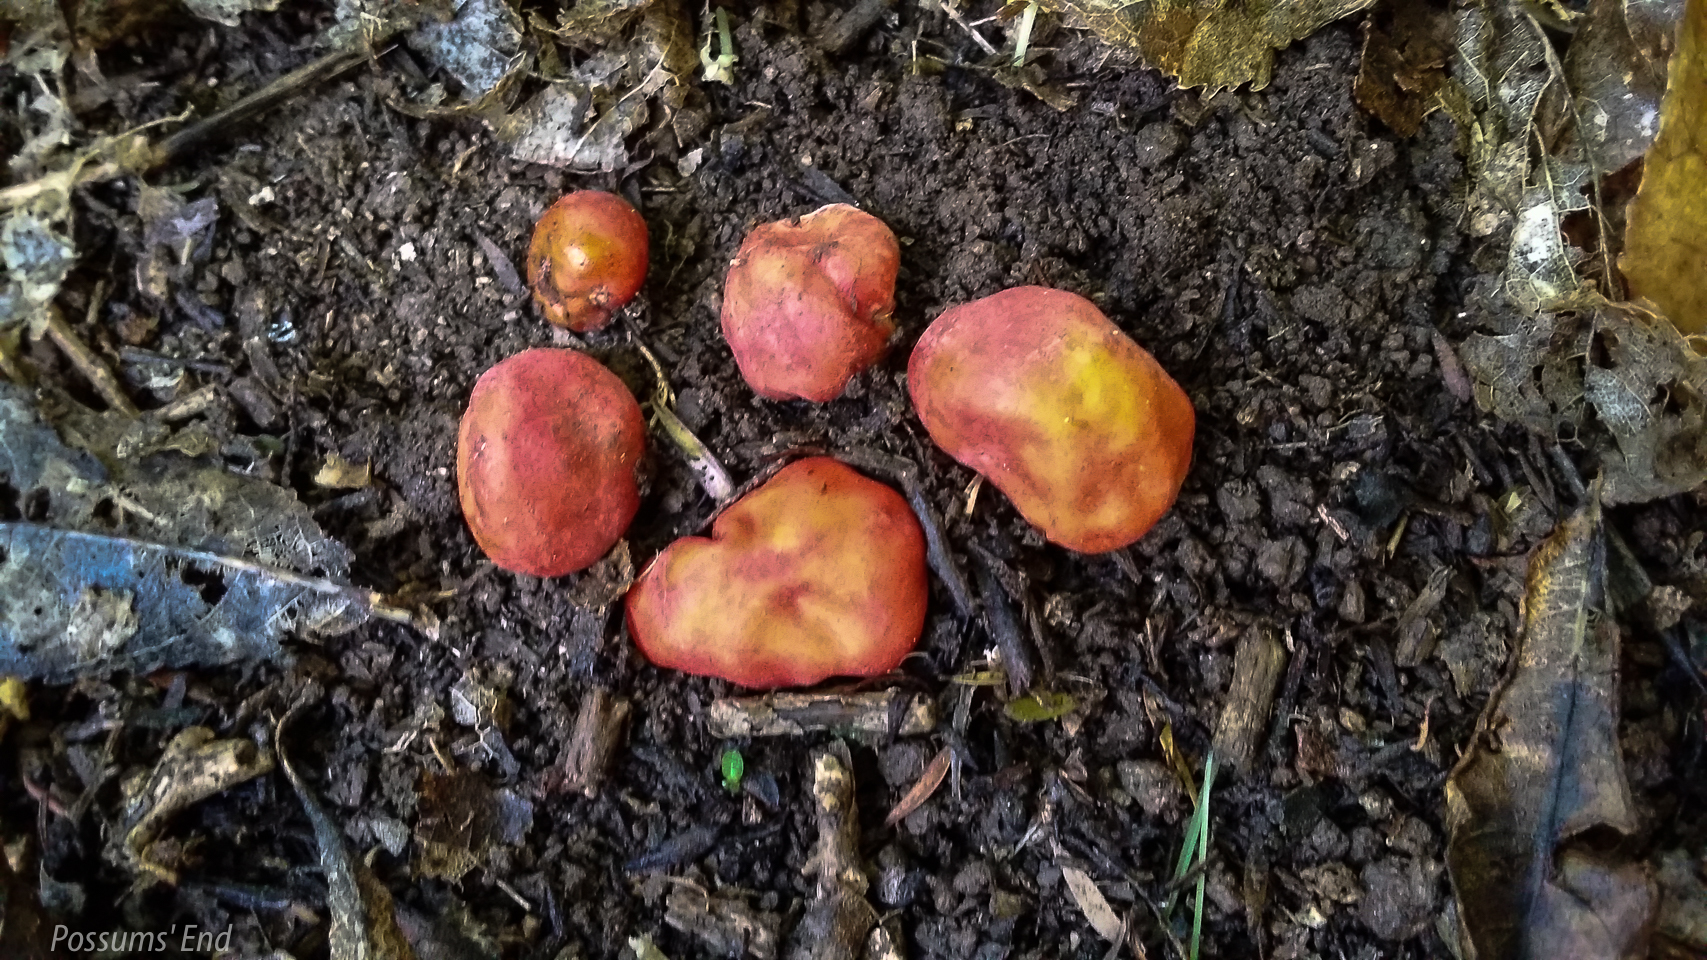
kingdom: Fungi
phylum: Ascomycota
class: Pezizomycetes
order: Pezizales
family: Pyronemataceae
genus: Paurocotylis
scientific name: Paurocotylis pila
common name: Scarlet berry truffle
